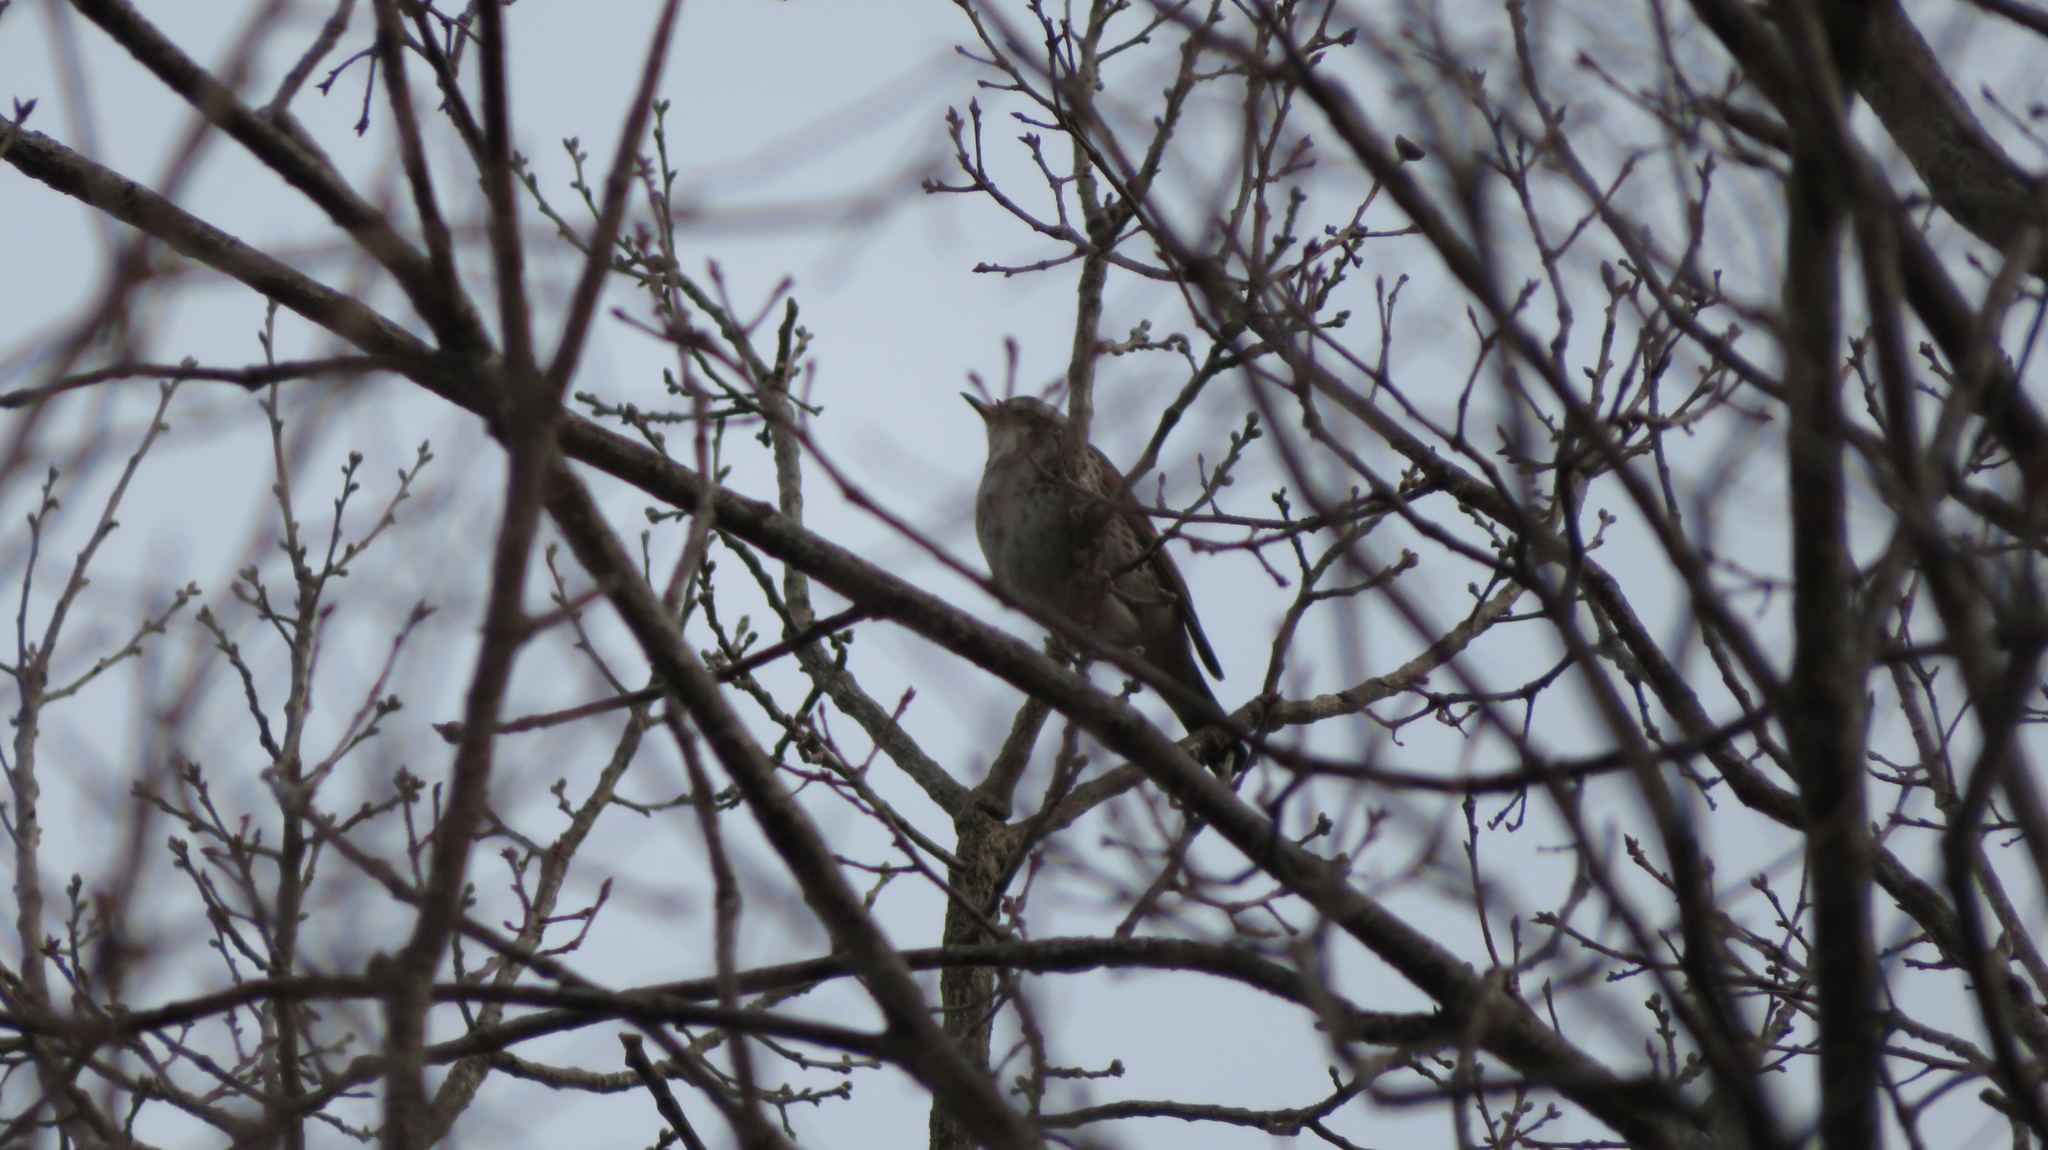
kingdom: Animalia
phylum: Chordata
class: Aves
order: Passeriformes
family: Turdidae
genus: Turdus
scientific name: Turdus eunomus
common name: Dusky thrush
